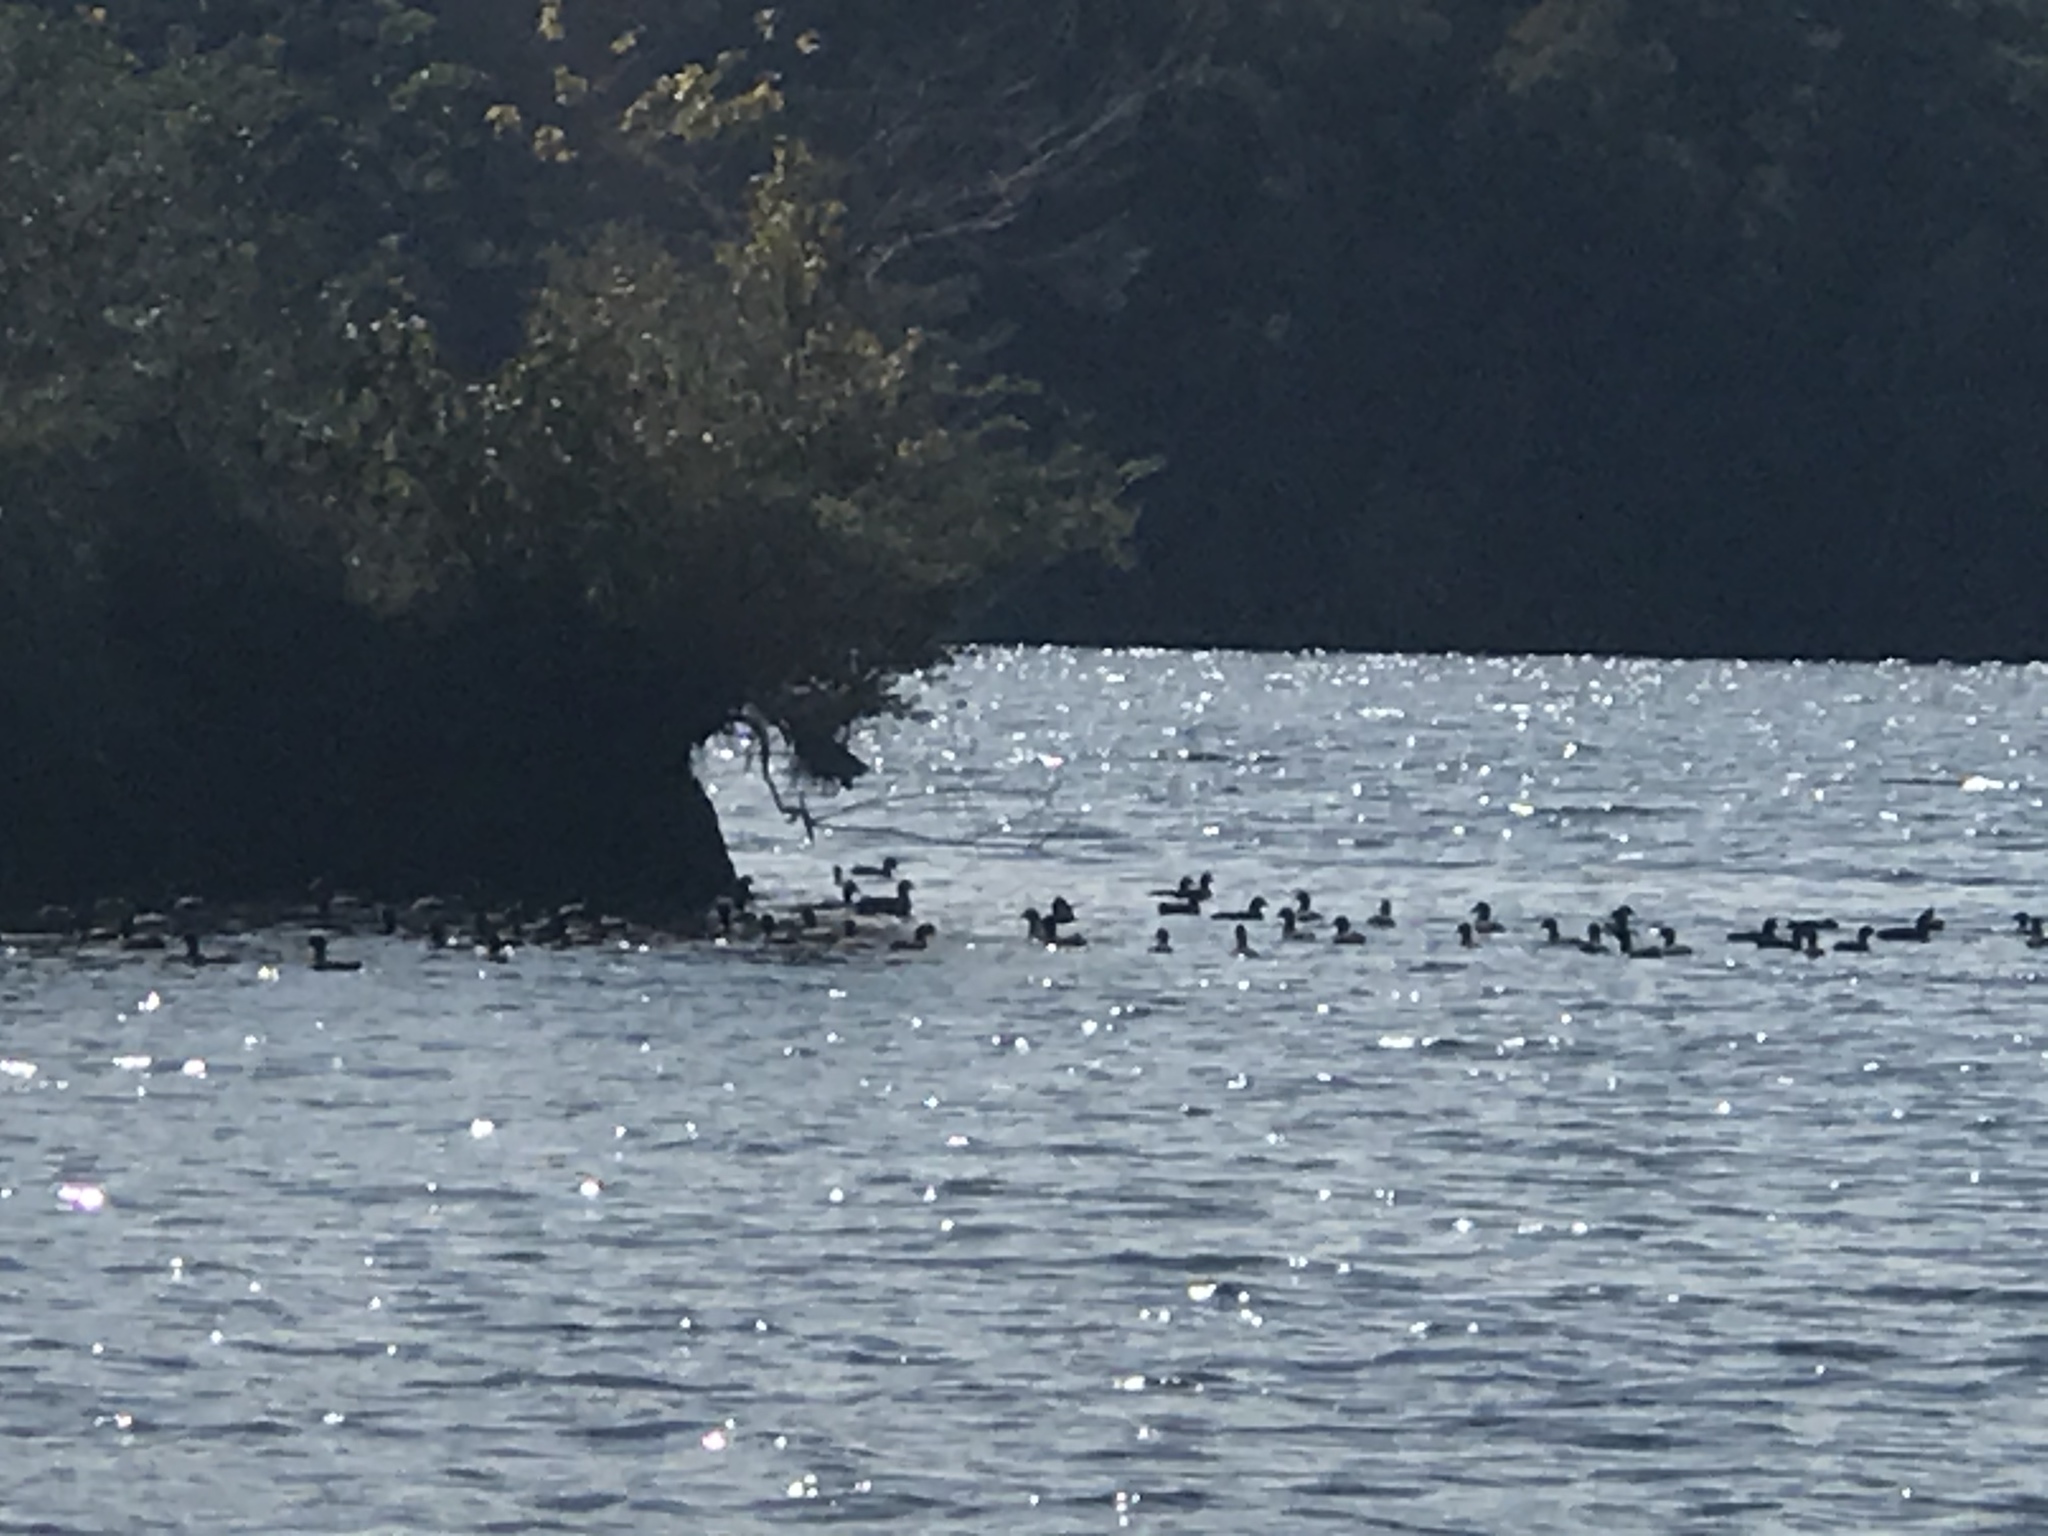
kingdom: Animalia
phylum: Chordata
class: Aves
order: Gruiformes
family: Rallidae
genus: Fulica
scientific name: Fulica americana
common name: American coot
